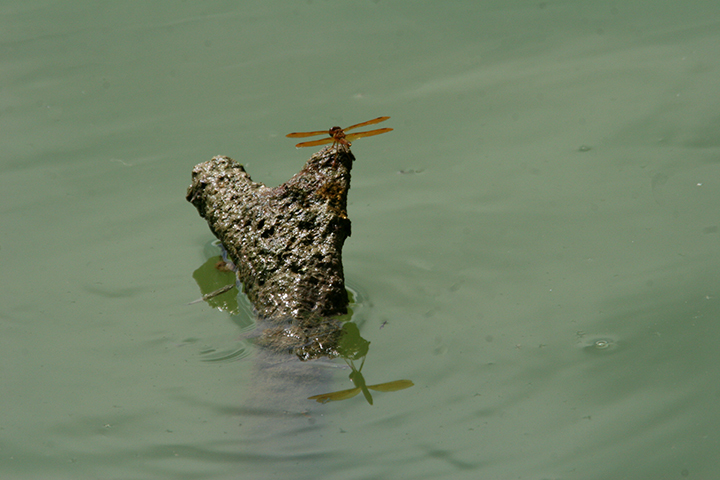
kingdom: Animalia
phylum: Arthropoda
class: Insecta
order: Odonata
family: Libellulidae
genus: Perithemis
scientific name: Perithemis tenera
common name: Eastern amberwing
